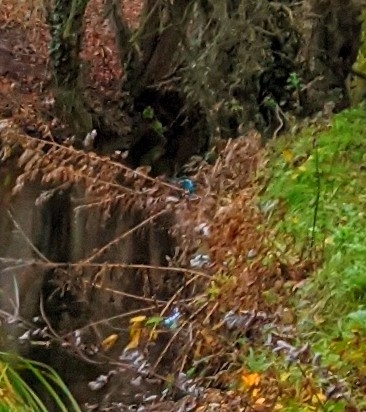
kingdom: Animalia
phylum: Chordata
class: Aves
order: Coraciiformes
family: Alcedinidae
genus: Alcedo
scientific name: Alcedo atthis
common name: Common kingfisher
